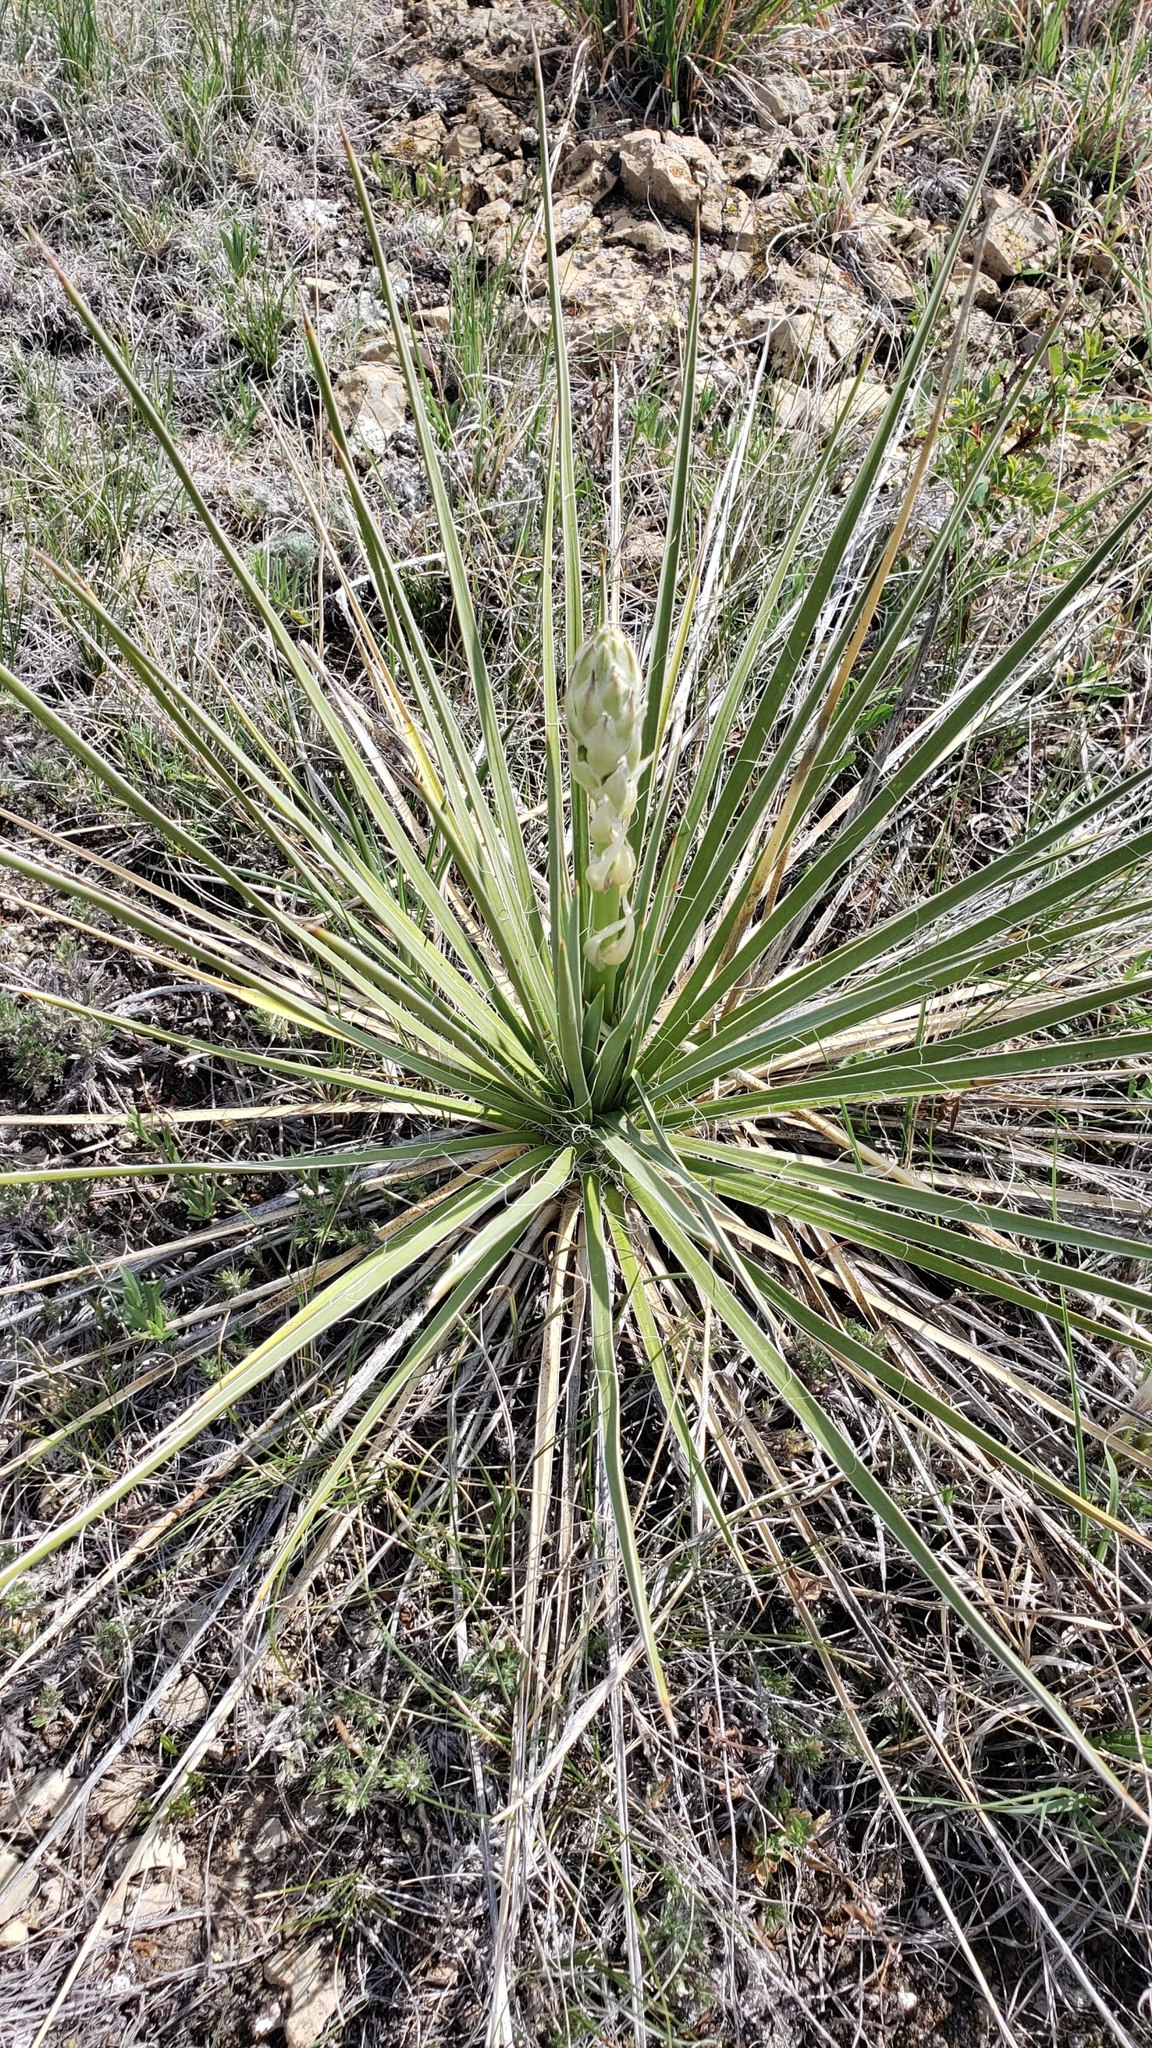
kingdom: Plantae
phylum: Tracheophyta
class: Liliopsida
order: Asparagales
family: Asparagaceae
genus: Yucca
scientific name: Yucca glauca
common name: Great plains yucca
